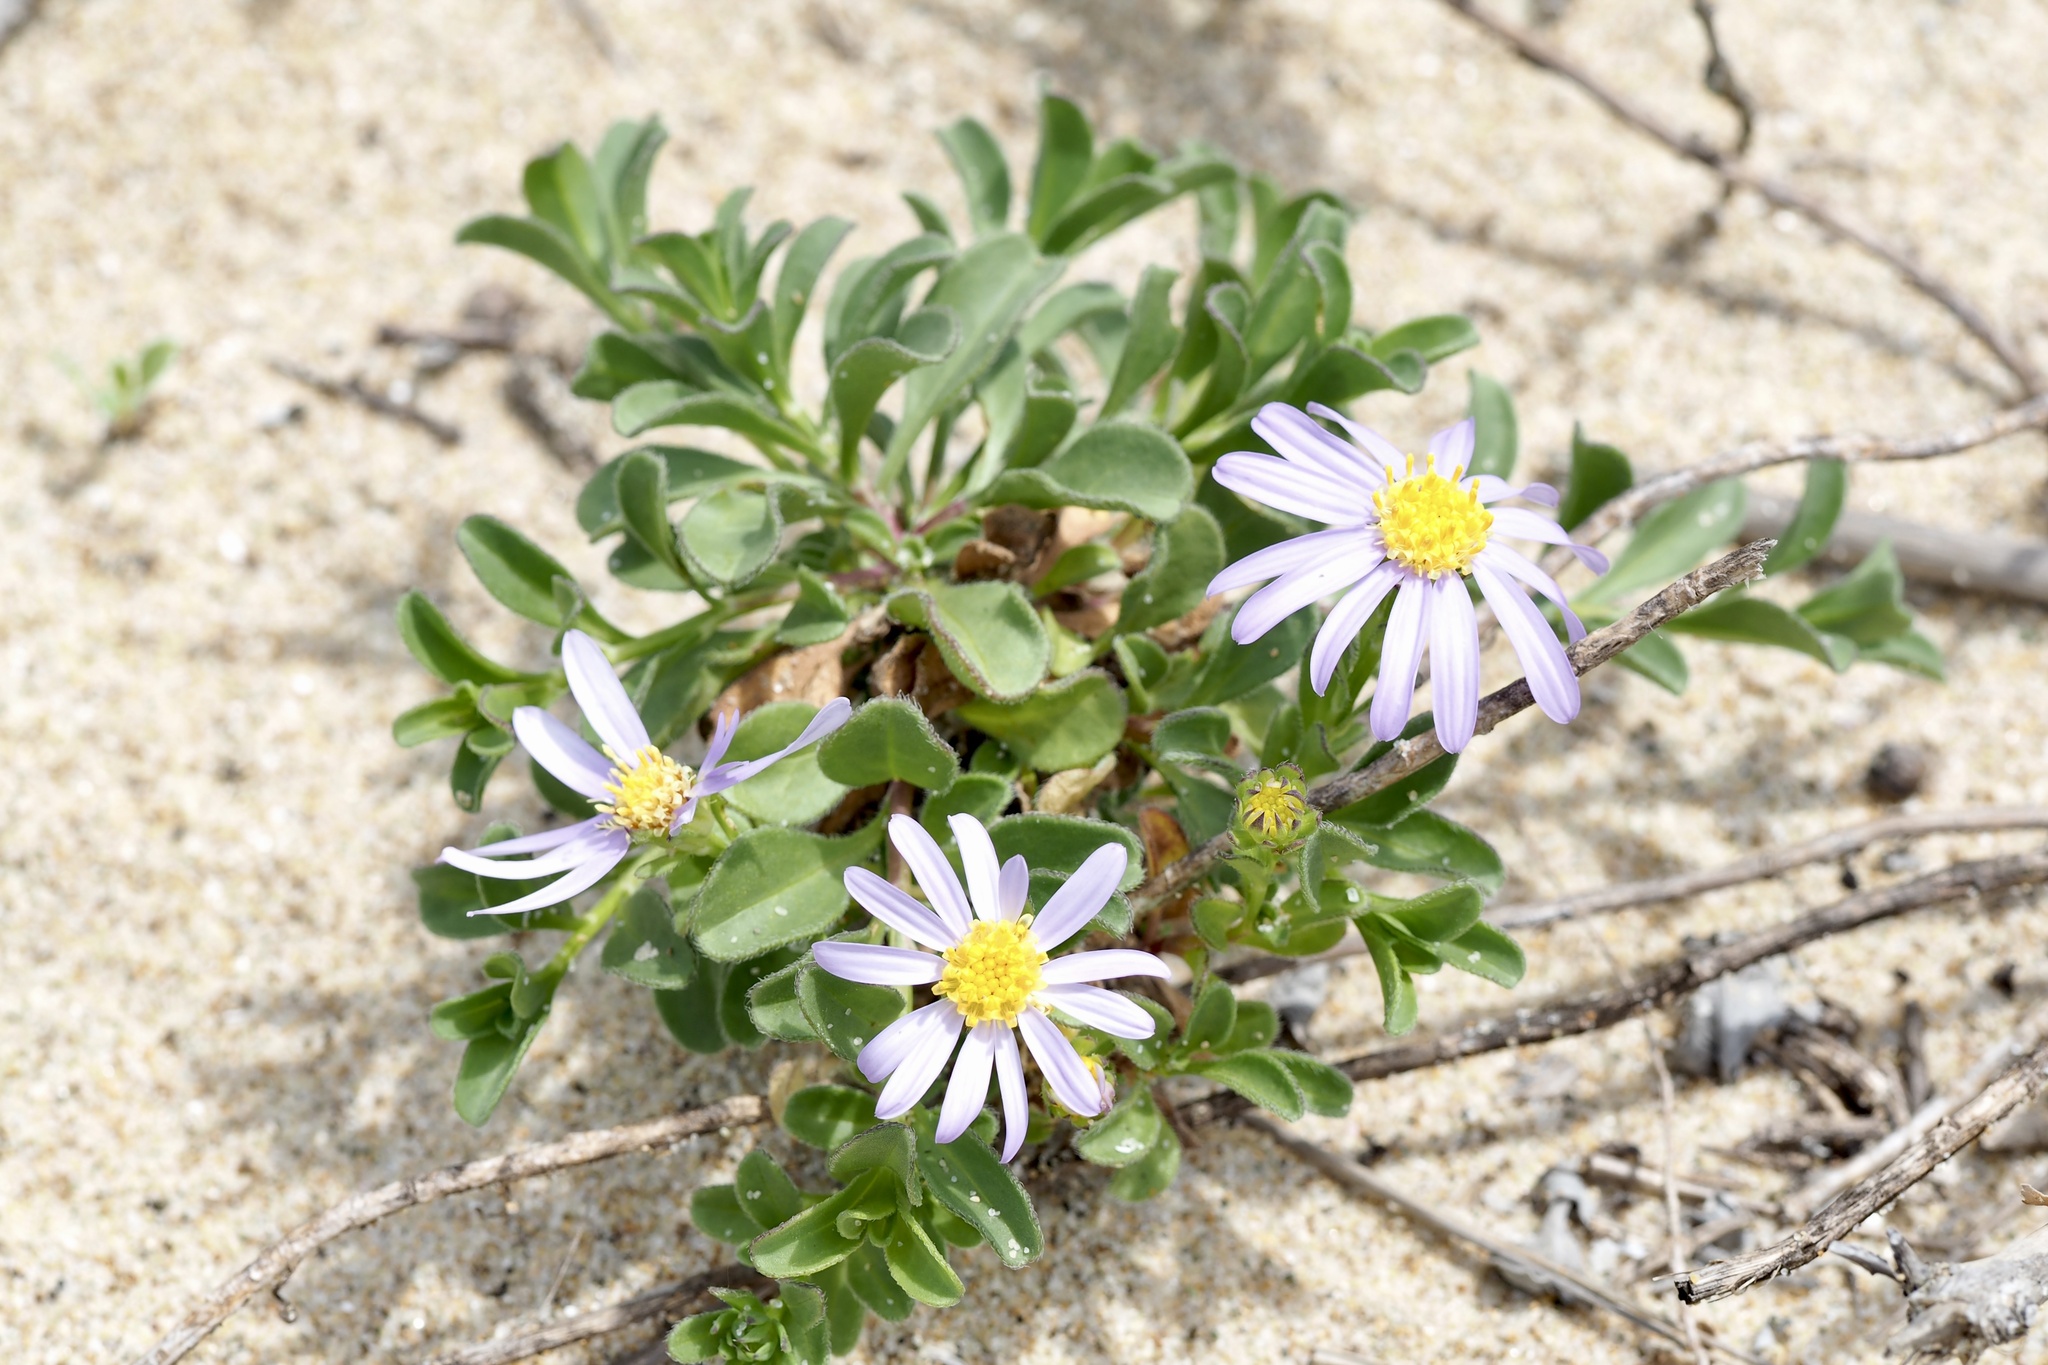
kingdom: Plantae
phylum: Tracheophyta
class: Magnoliopsida
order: Asterales
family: Asteraceae
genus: Heteropappus
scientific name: Heteropappus arenarius
